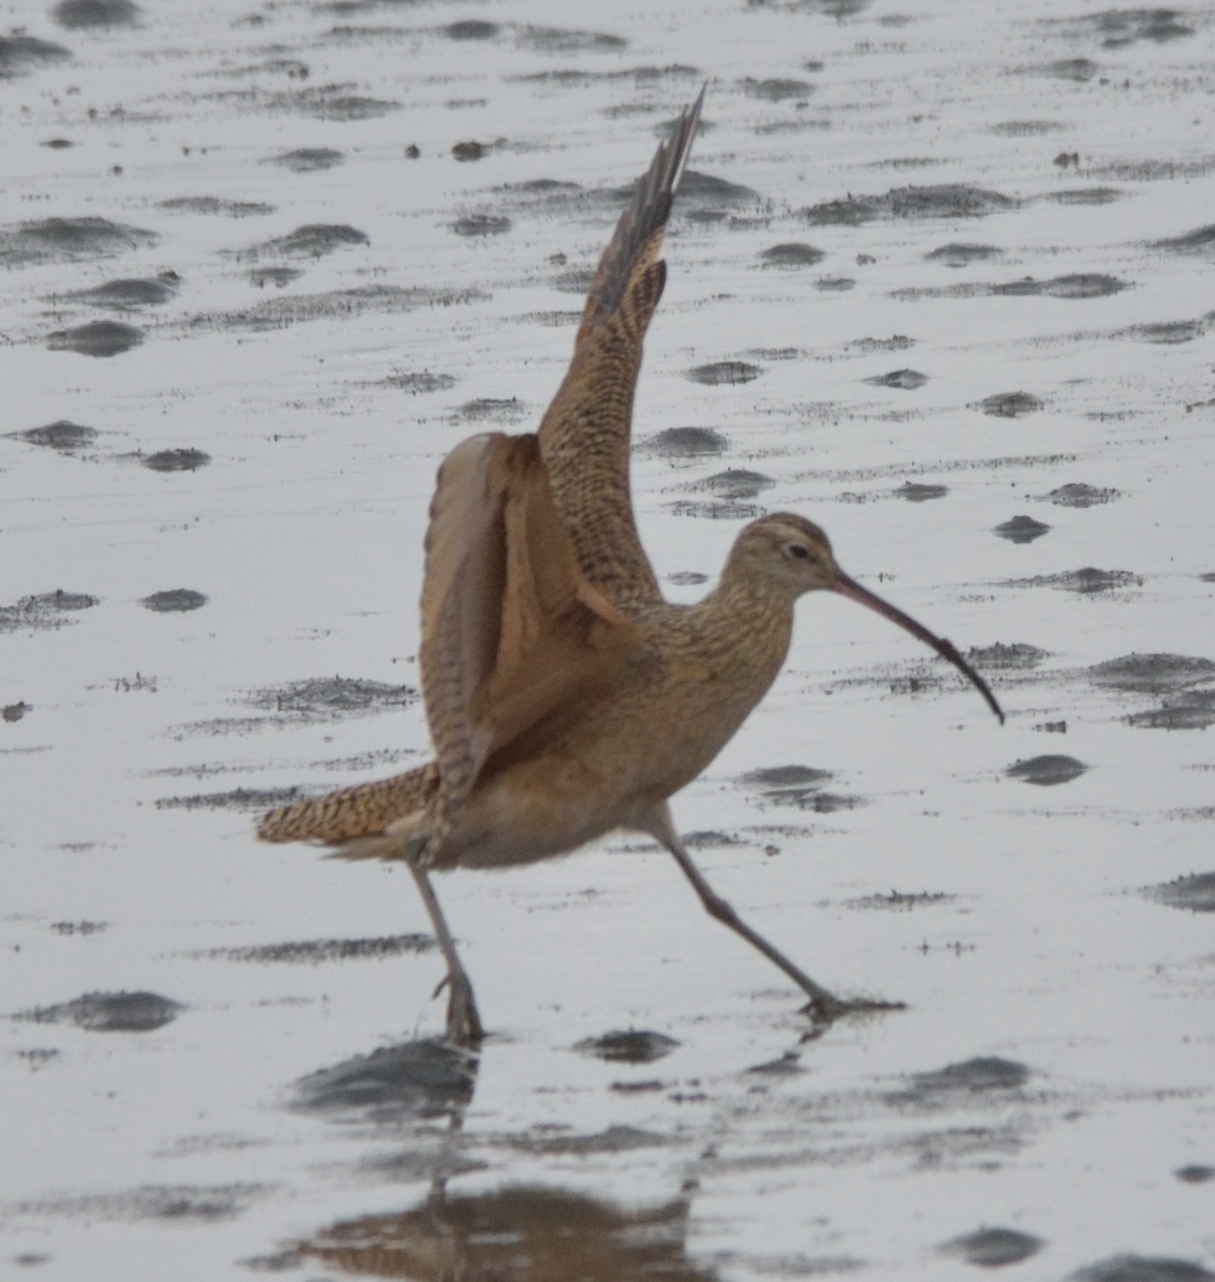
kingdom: Animalia
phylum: Chordata
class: Aves
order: Charadriiformes
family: Scolopacidae
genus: Numenius
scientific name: Numenius americanus
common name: Long-billed curlew
